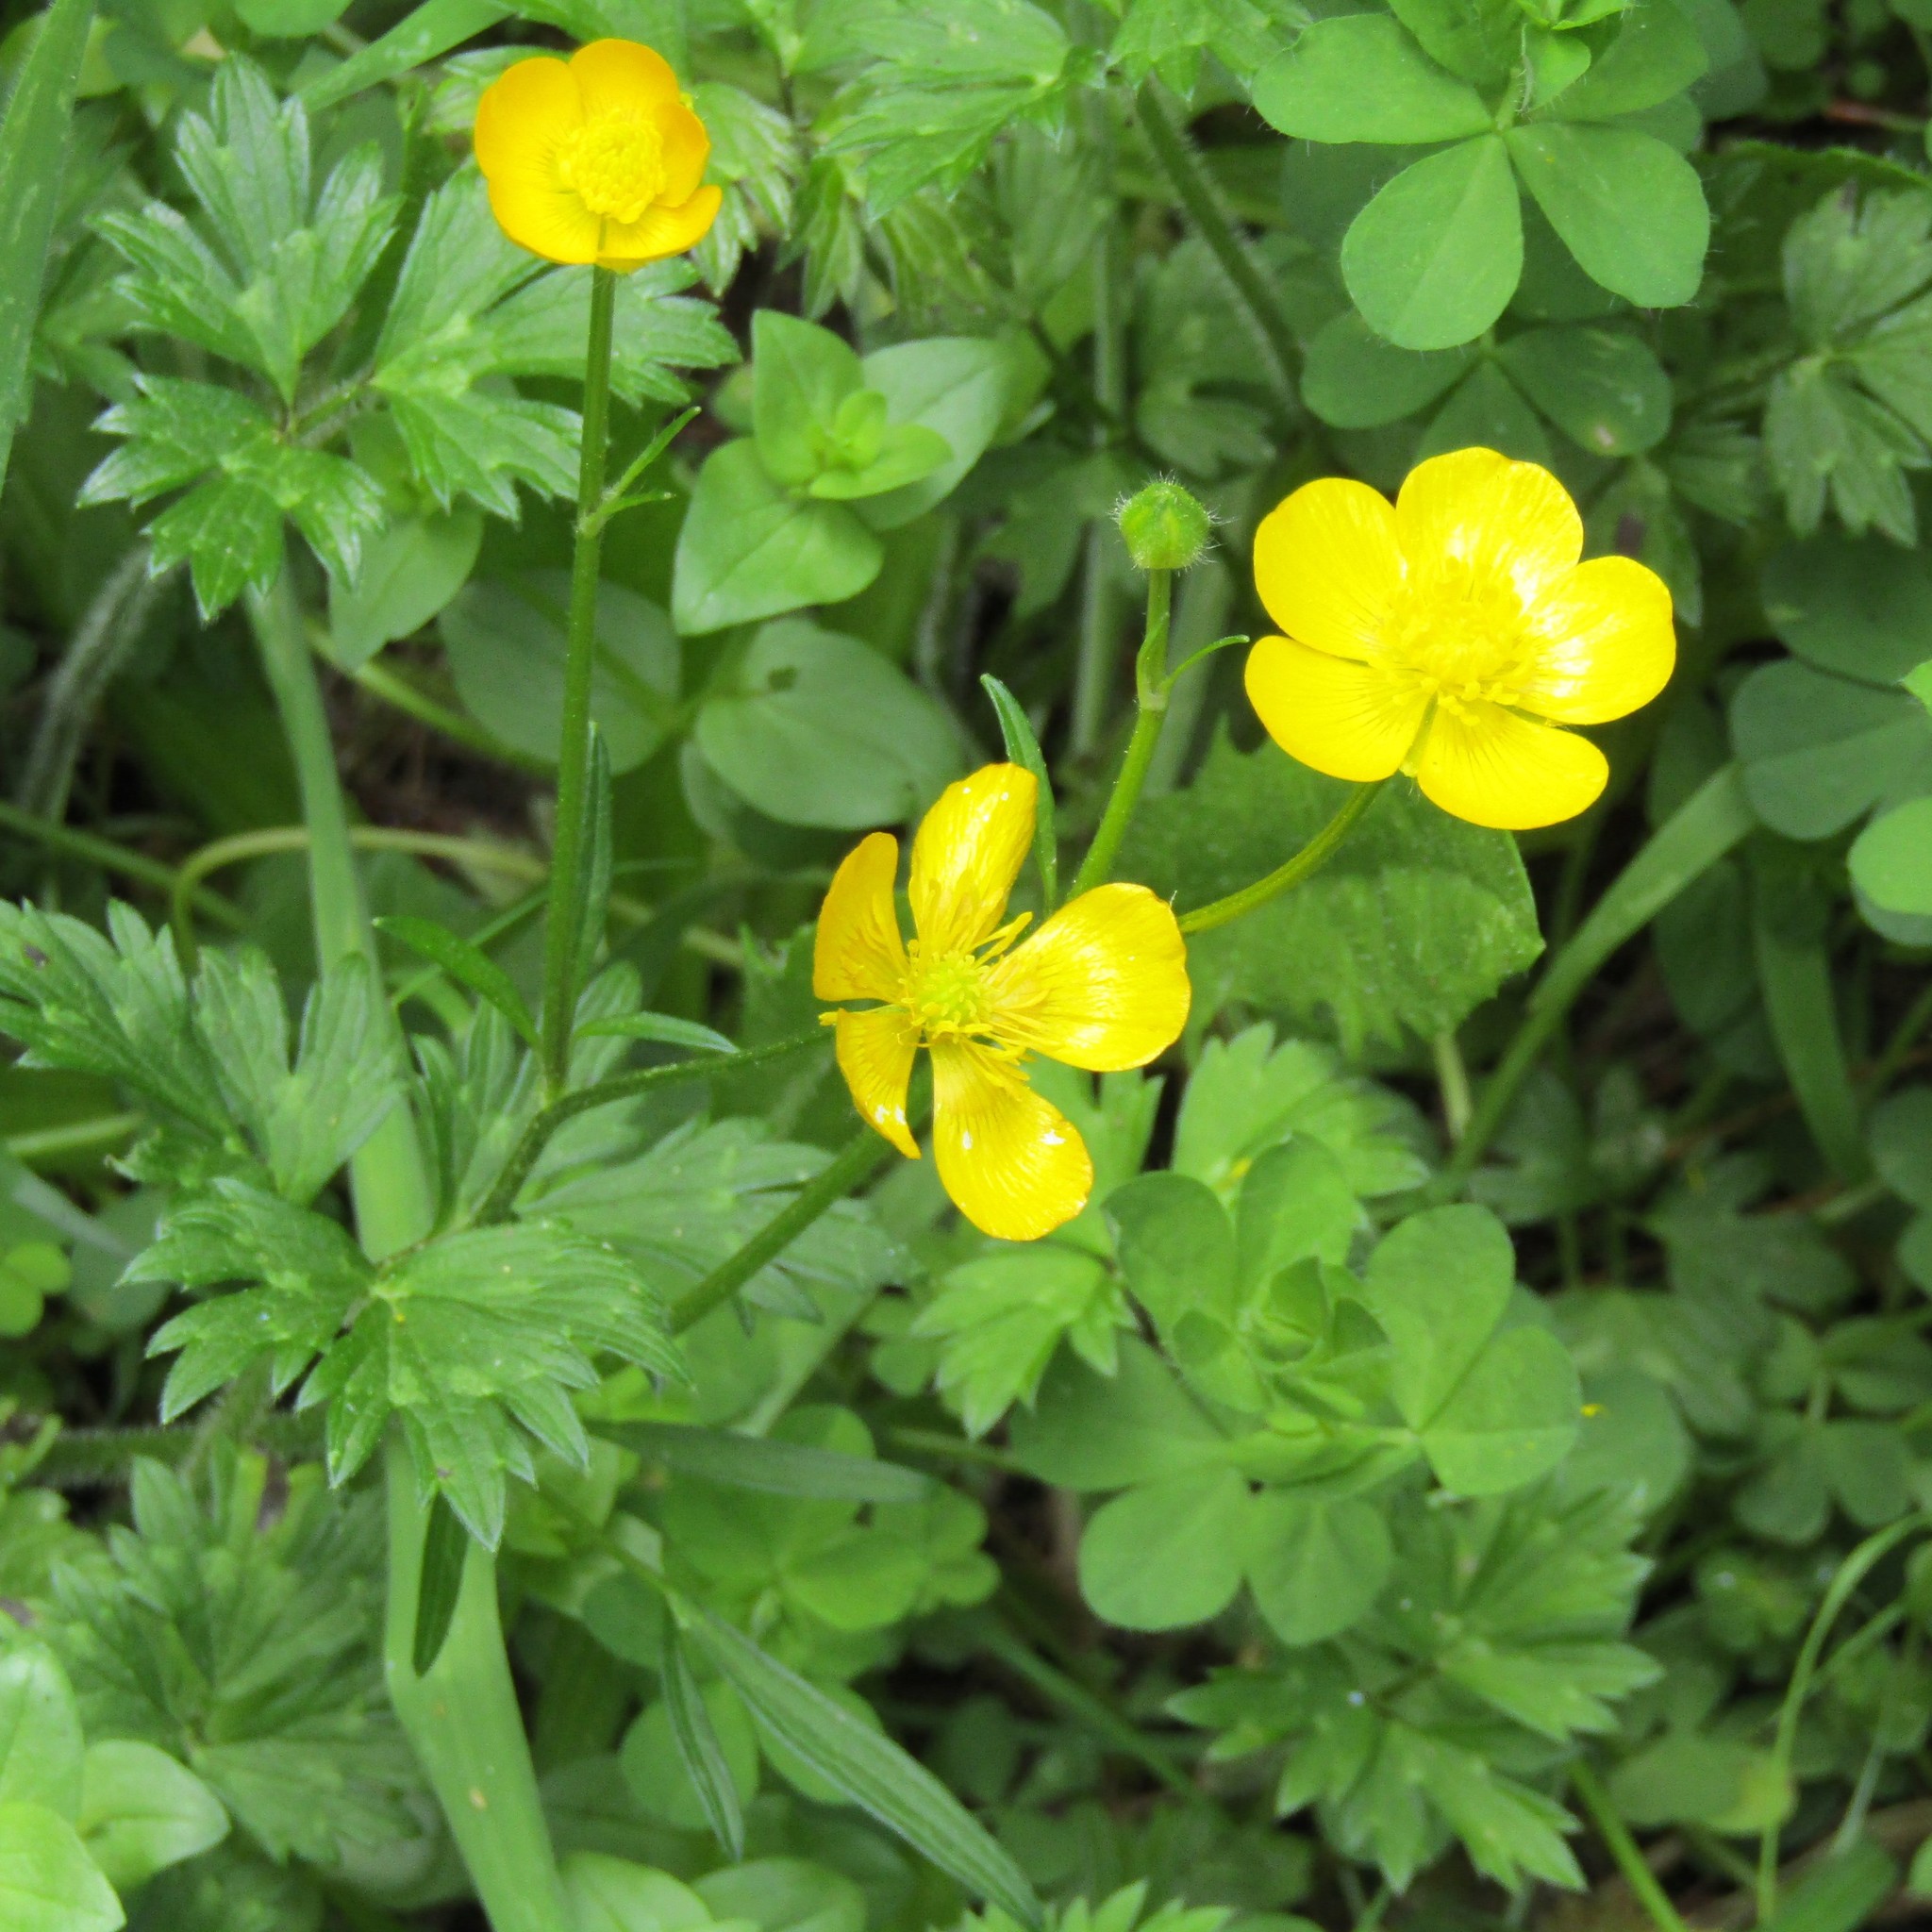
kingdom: Plantae
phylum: Tracheophyta
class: Magnoliopsida
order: Ranunculales
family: Ranunculaceae
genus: Ranunculus
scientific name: Ranunculus repens
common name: Creeping buttercup
